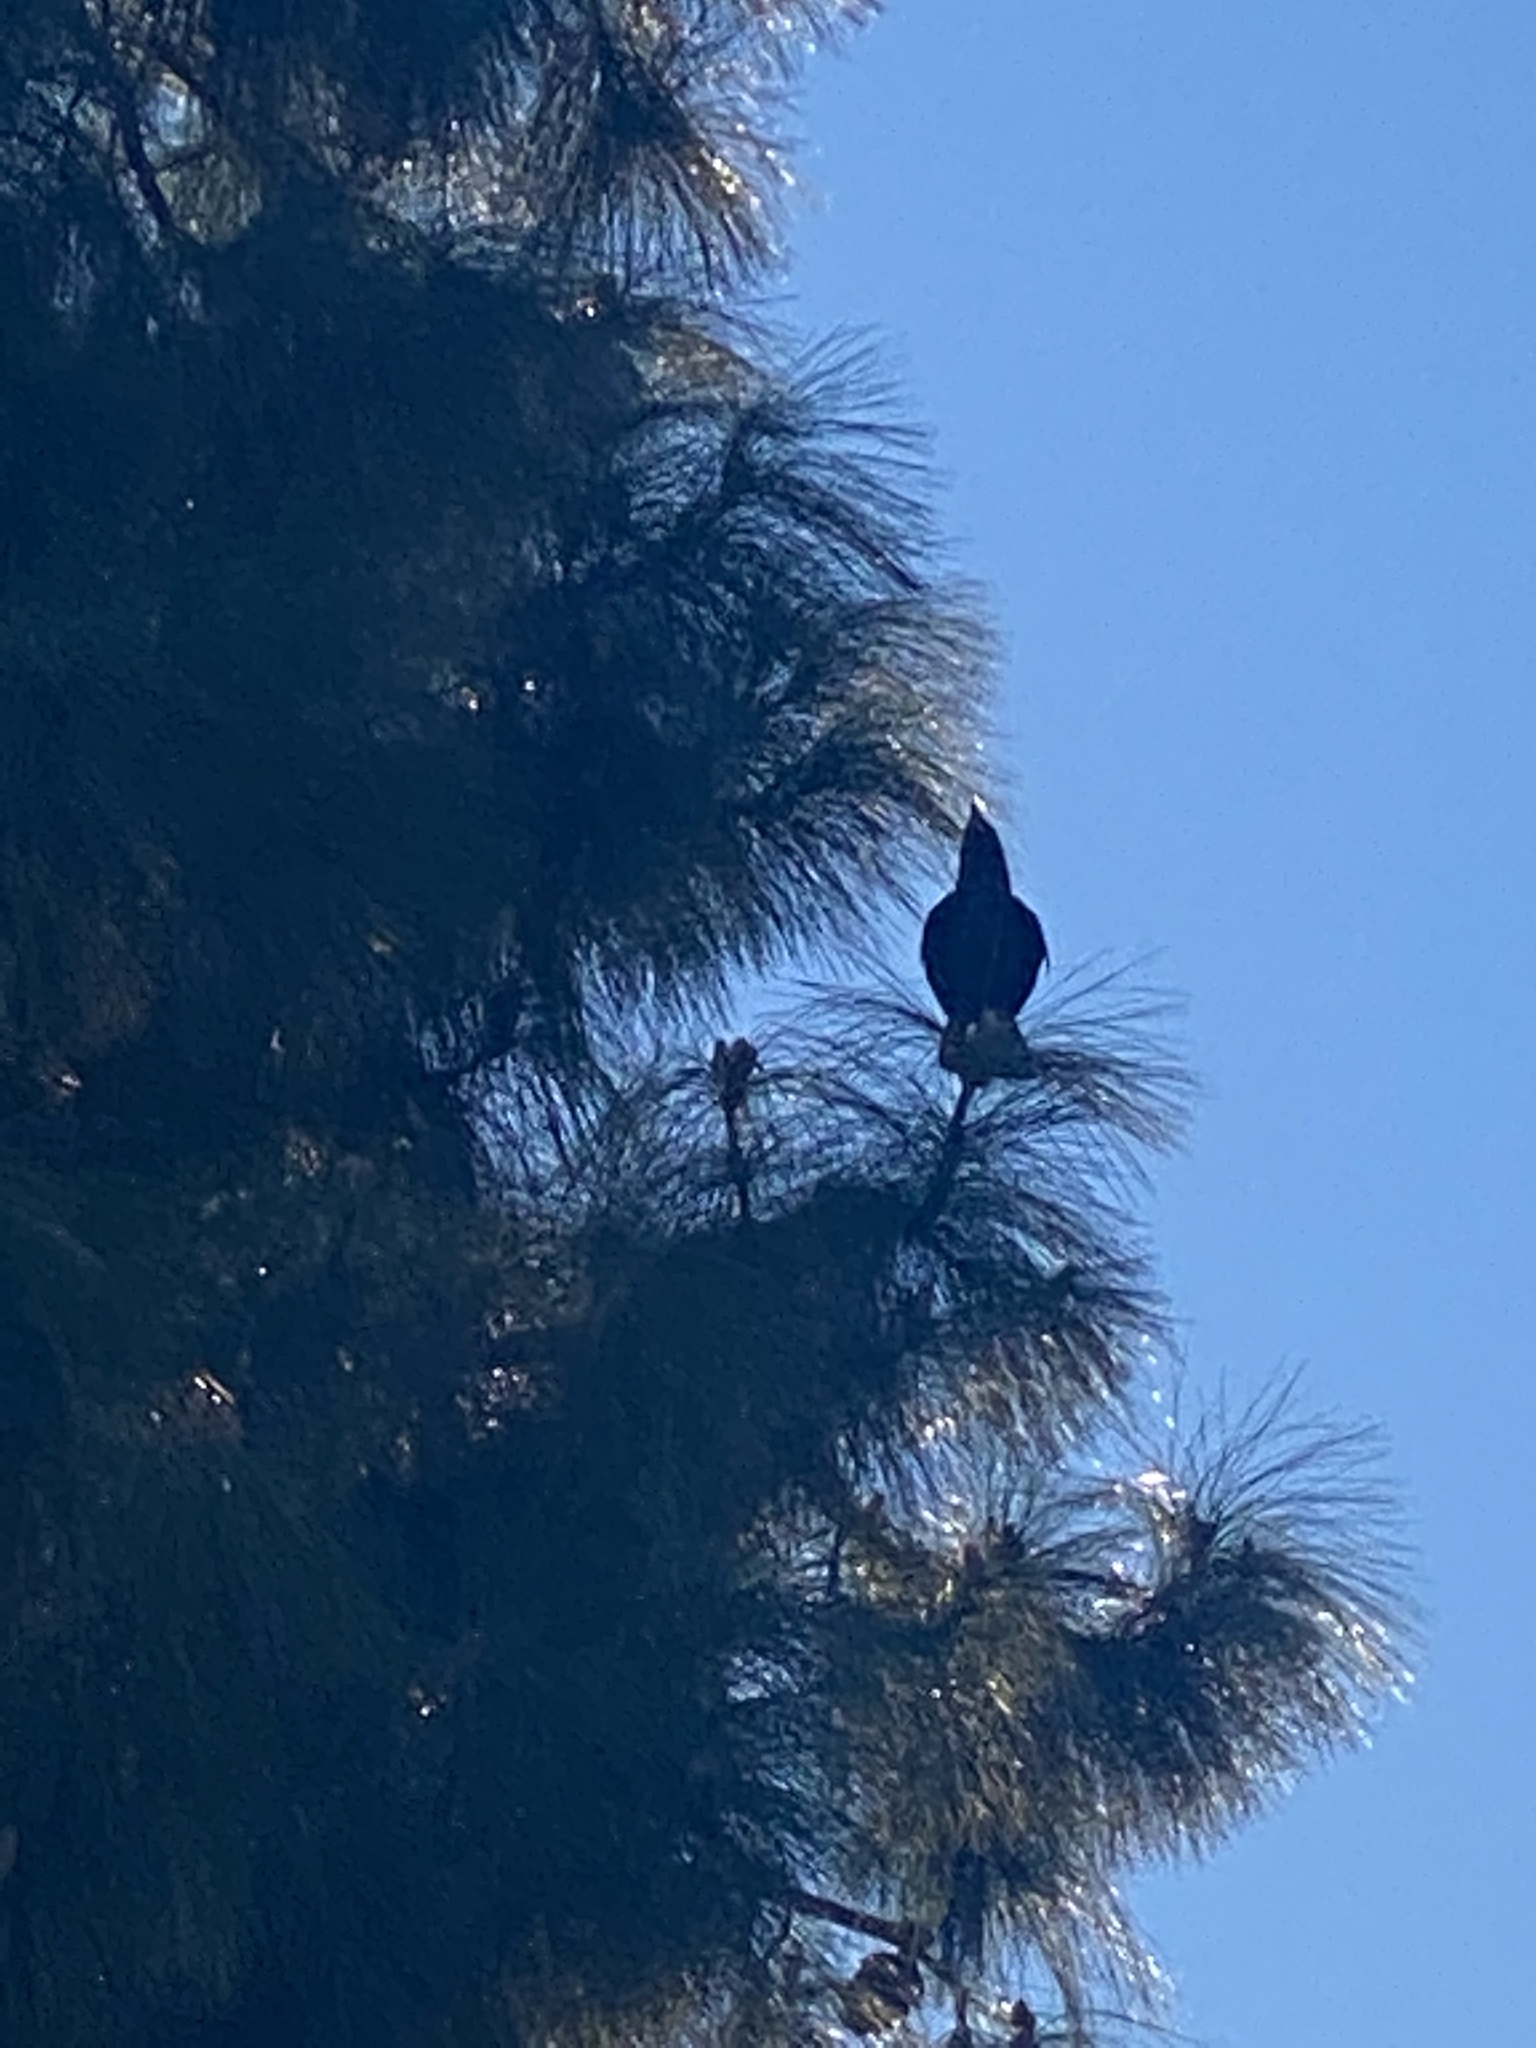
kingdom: Animalia
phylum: Chordata
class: Aves
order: Passeriformes
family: Corvidae
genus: Corvus
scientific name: Corvus brachyrhynchos
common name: American crow
